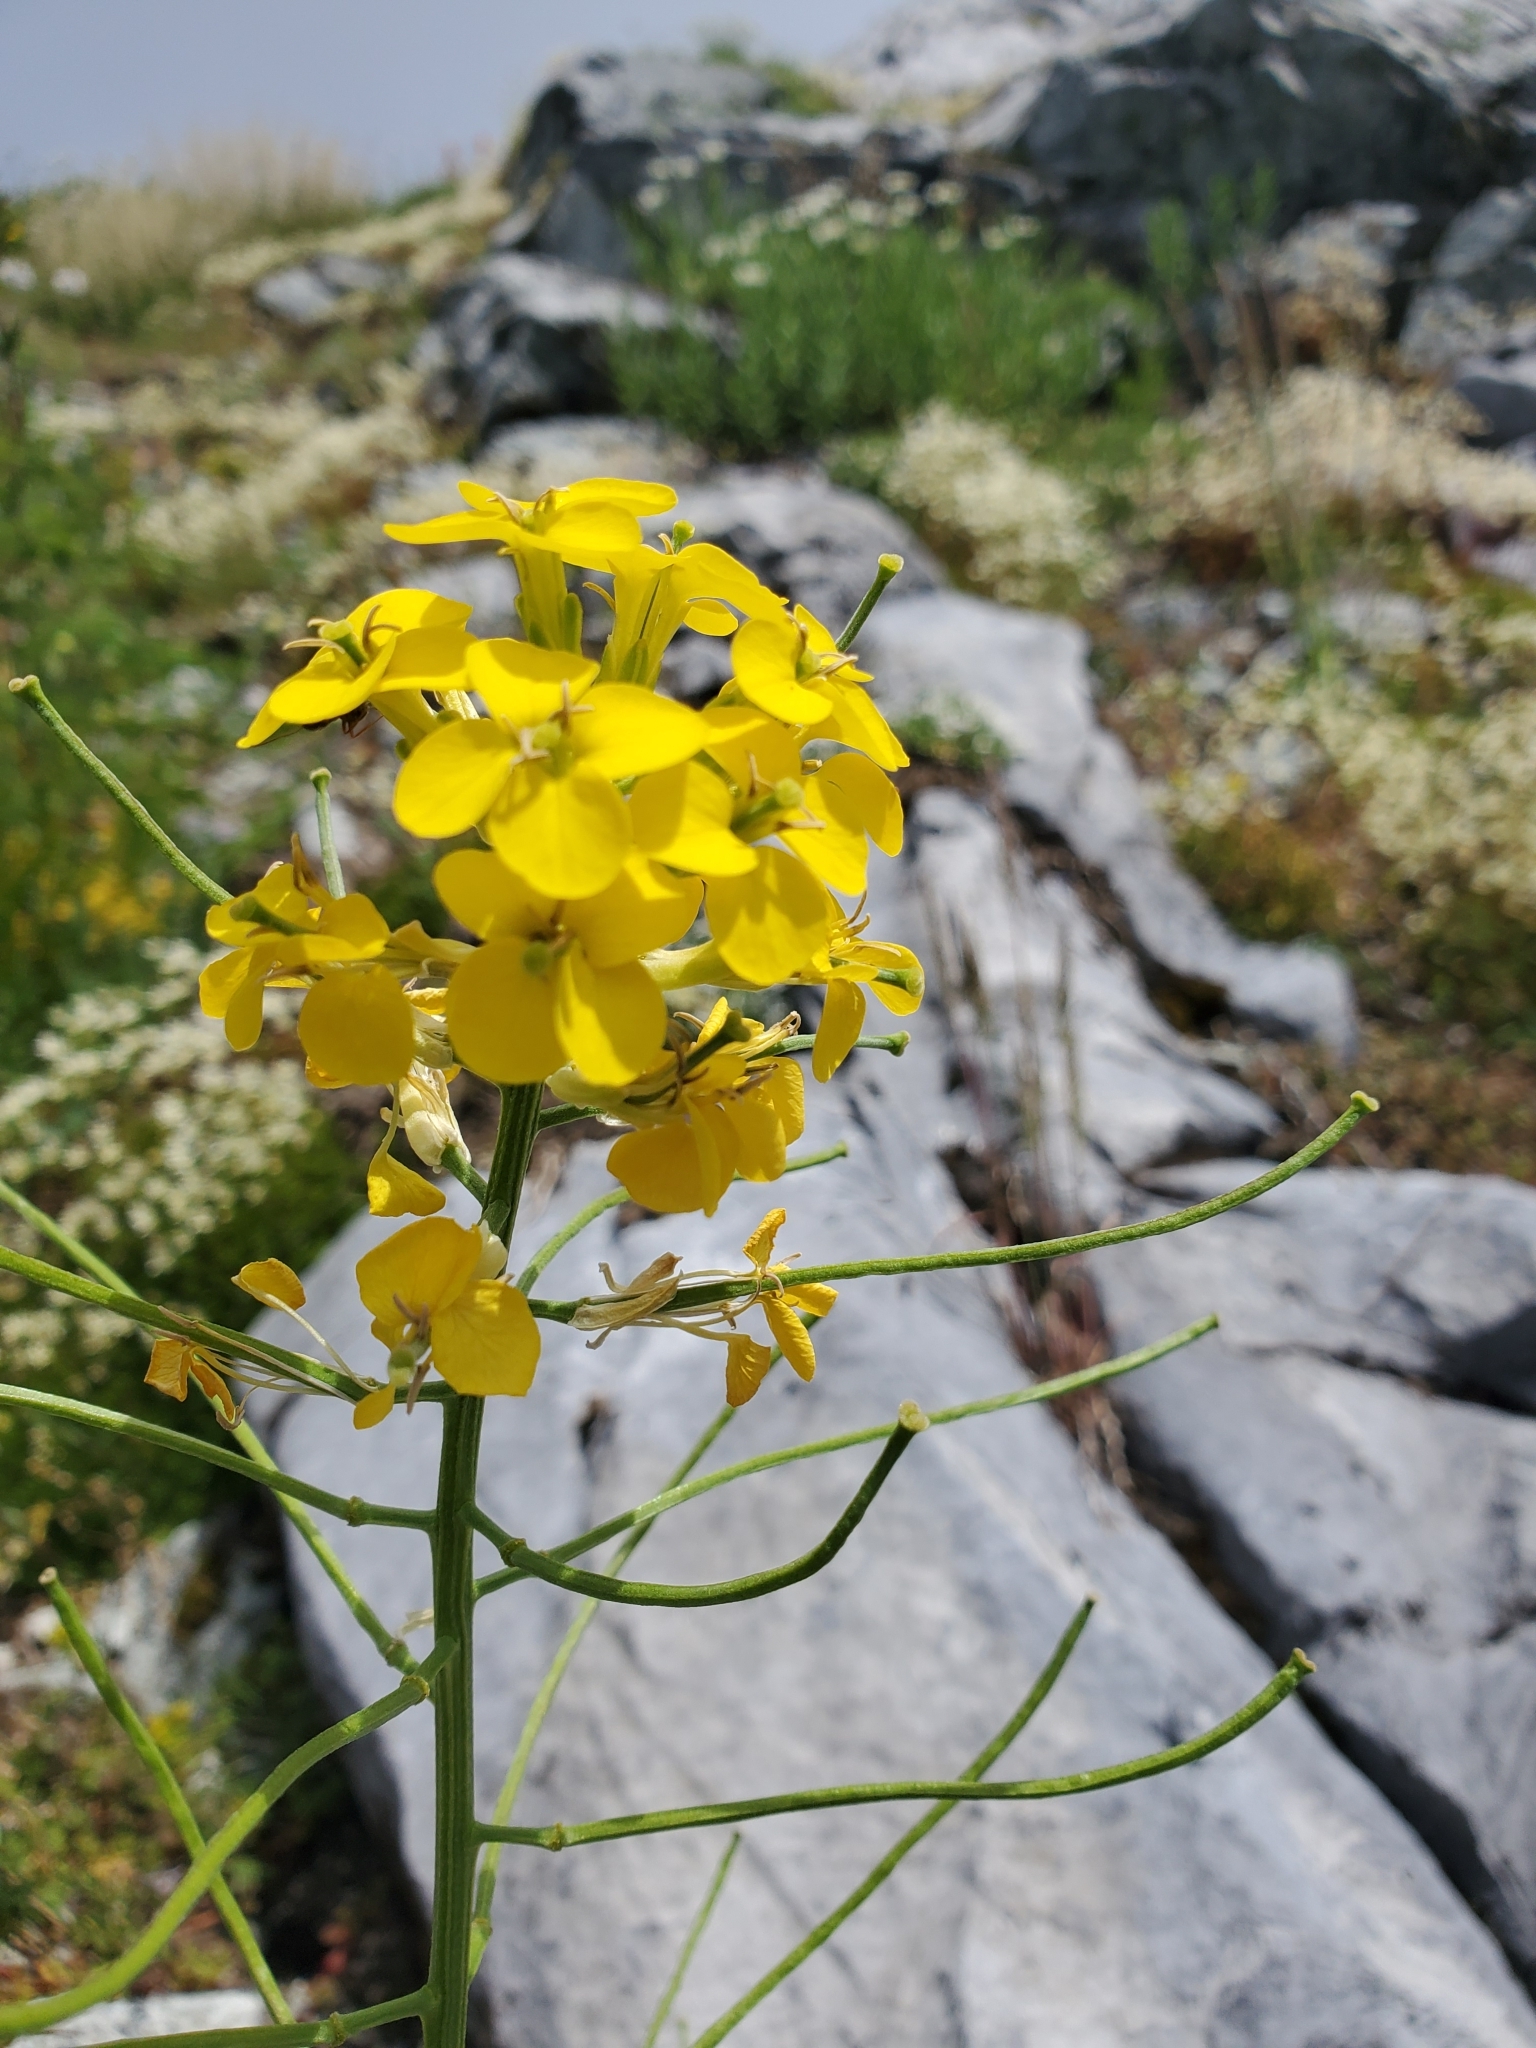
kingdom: Plantae
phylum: Tracheophyta
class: Magnoliopsida
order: Brassicales
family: Brassicaceae
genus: Erysimum
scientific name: Erysimum arenicola
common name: Cascade wallflower
